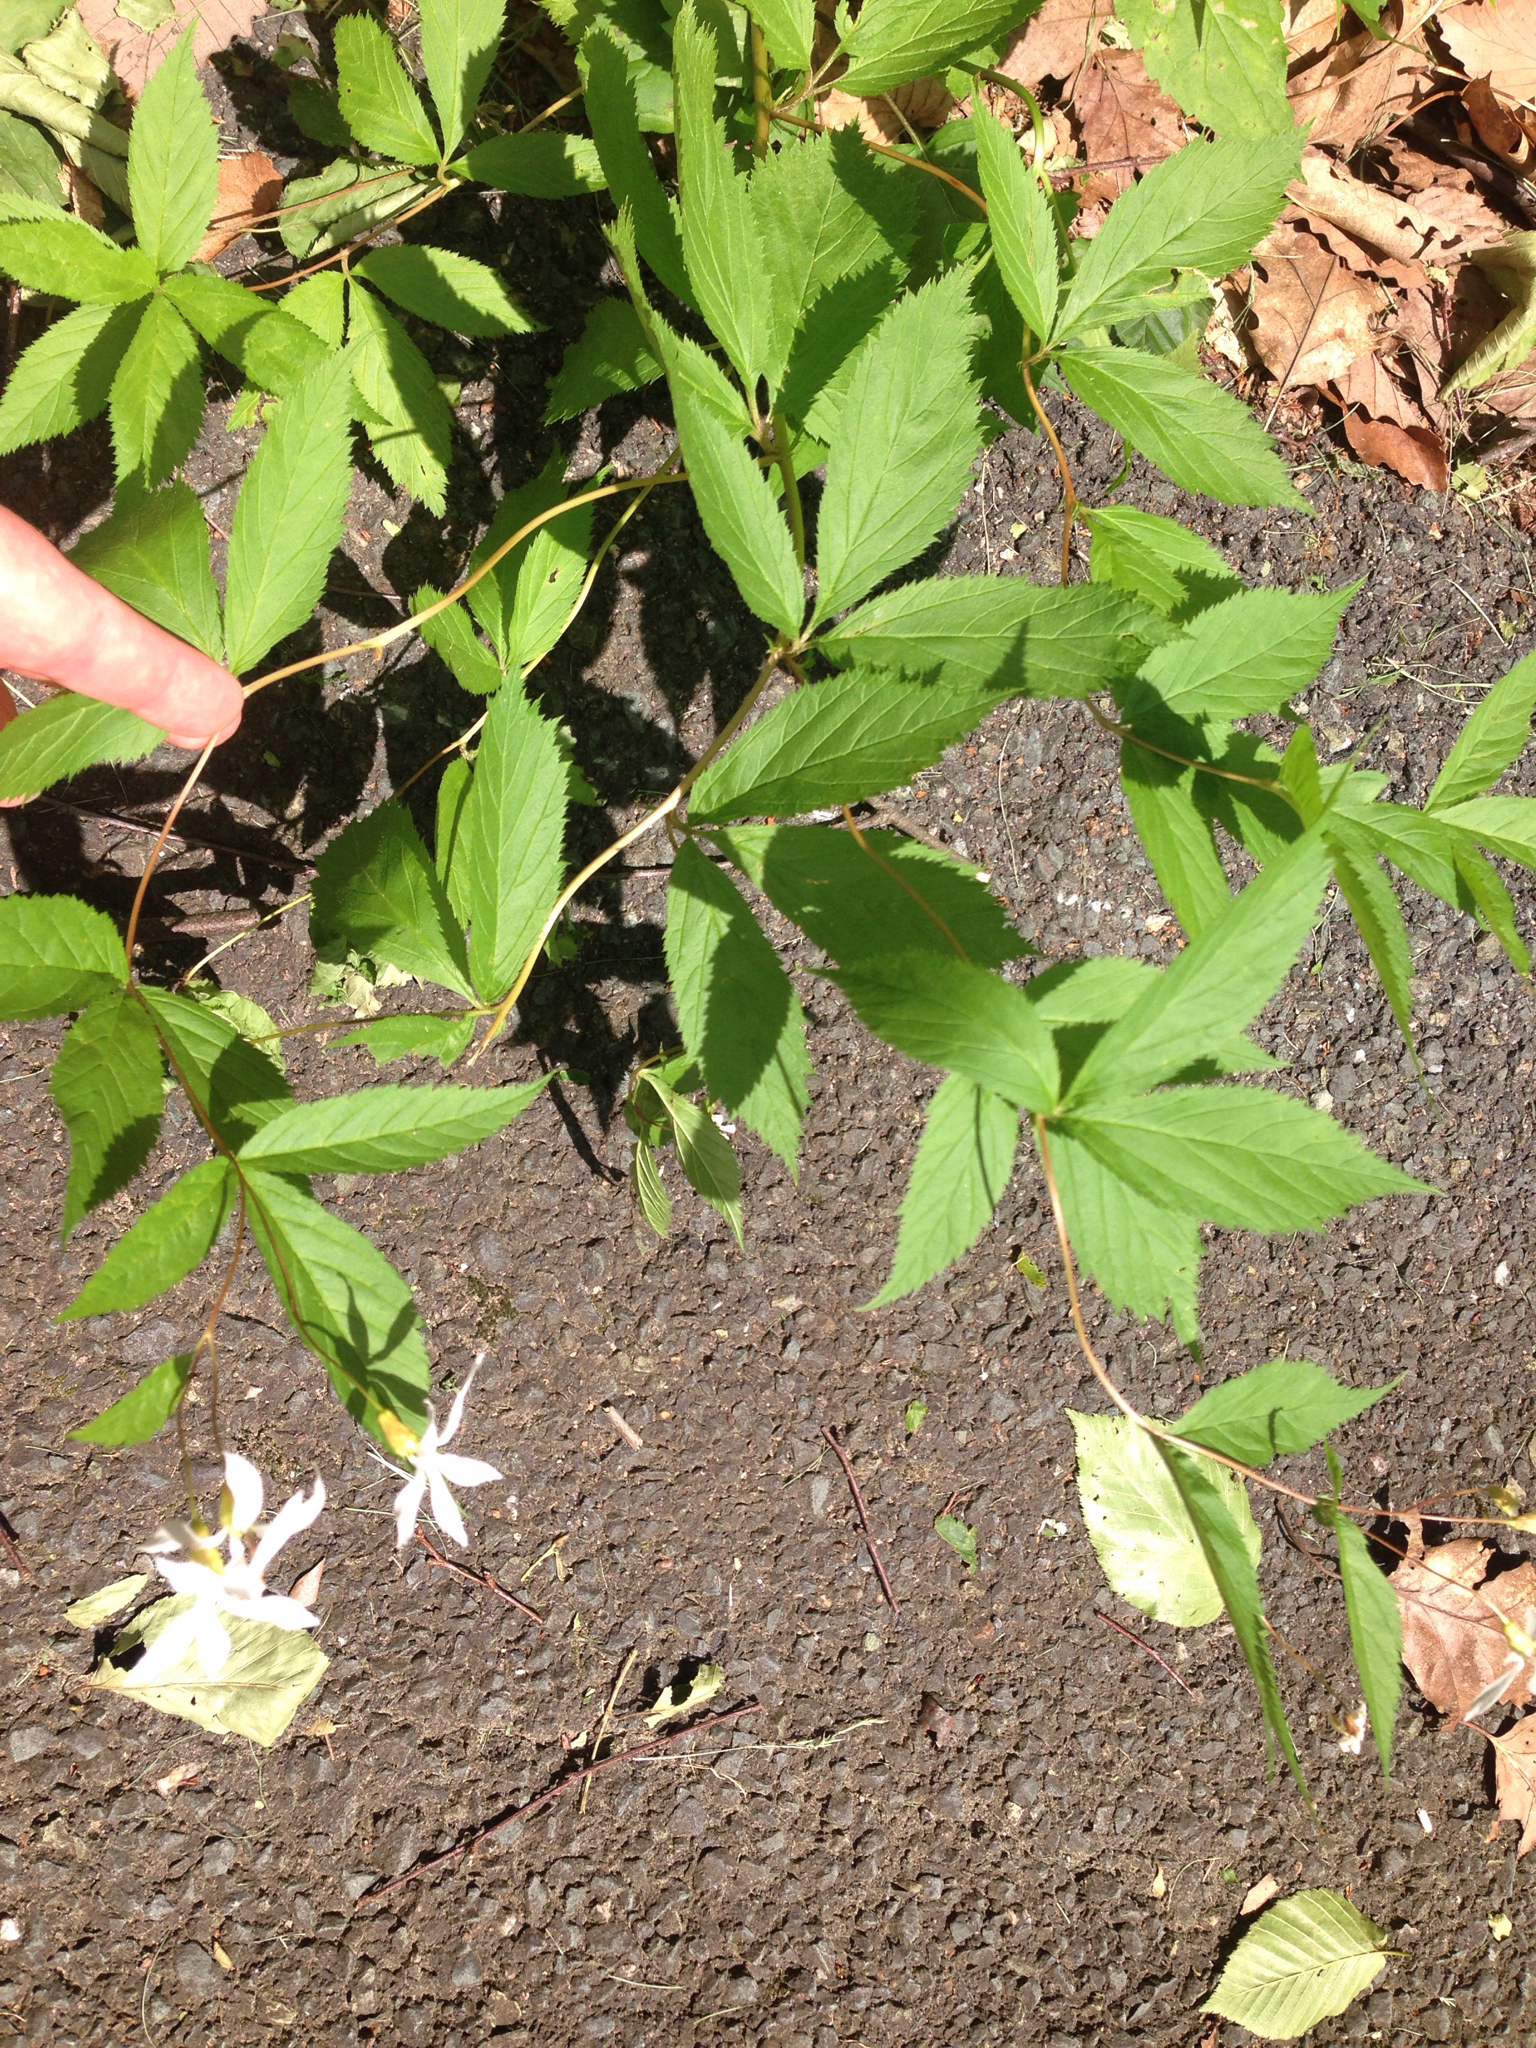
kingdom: Plantae
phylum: Tracheophyta
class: Magnoliopsida
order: Rosales
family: Rosaceae
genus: Gillenia
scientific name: Gillenia trifoliata
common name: Bowman's-root
